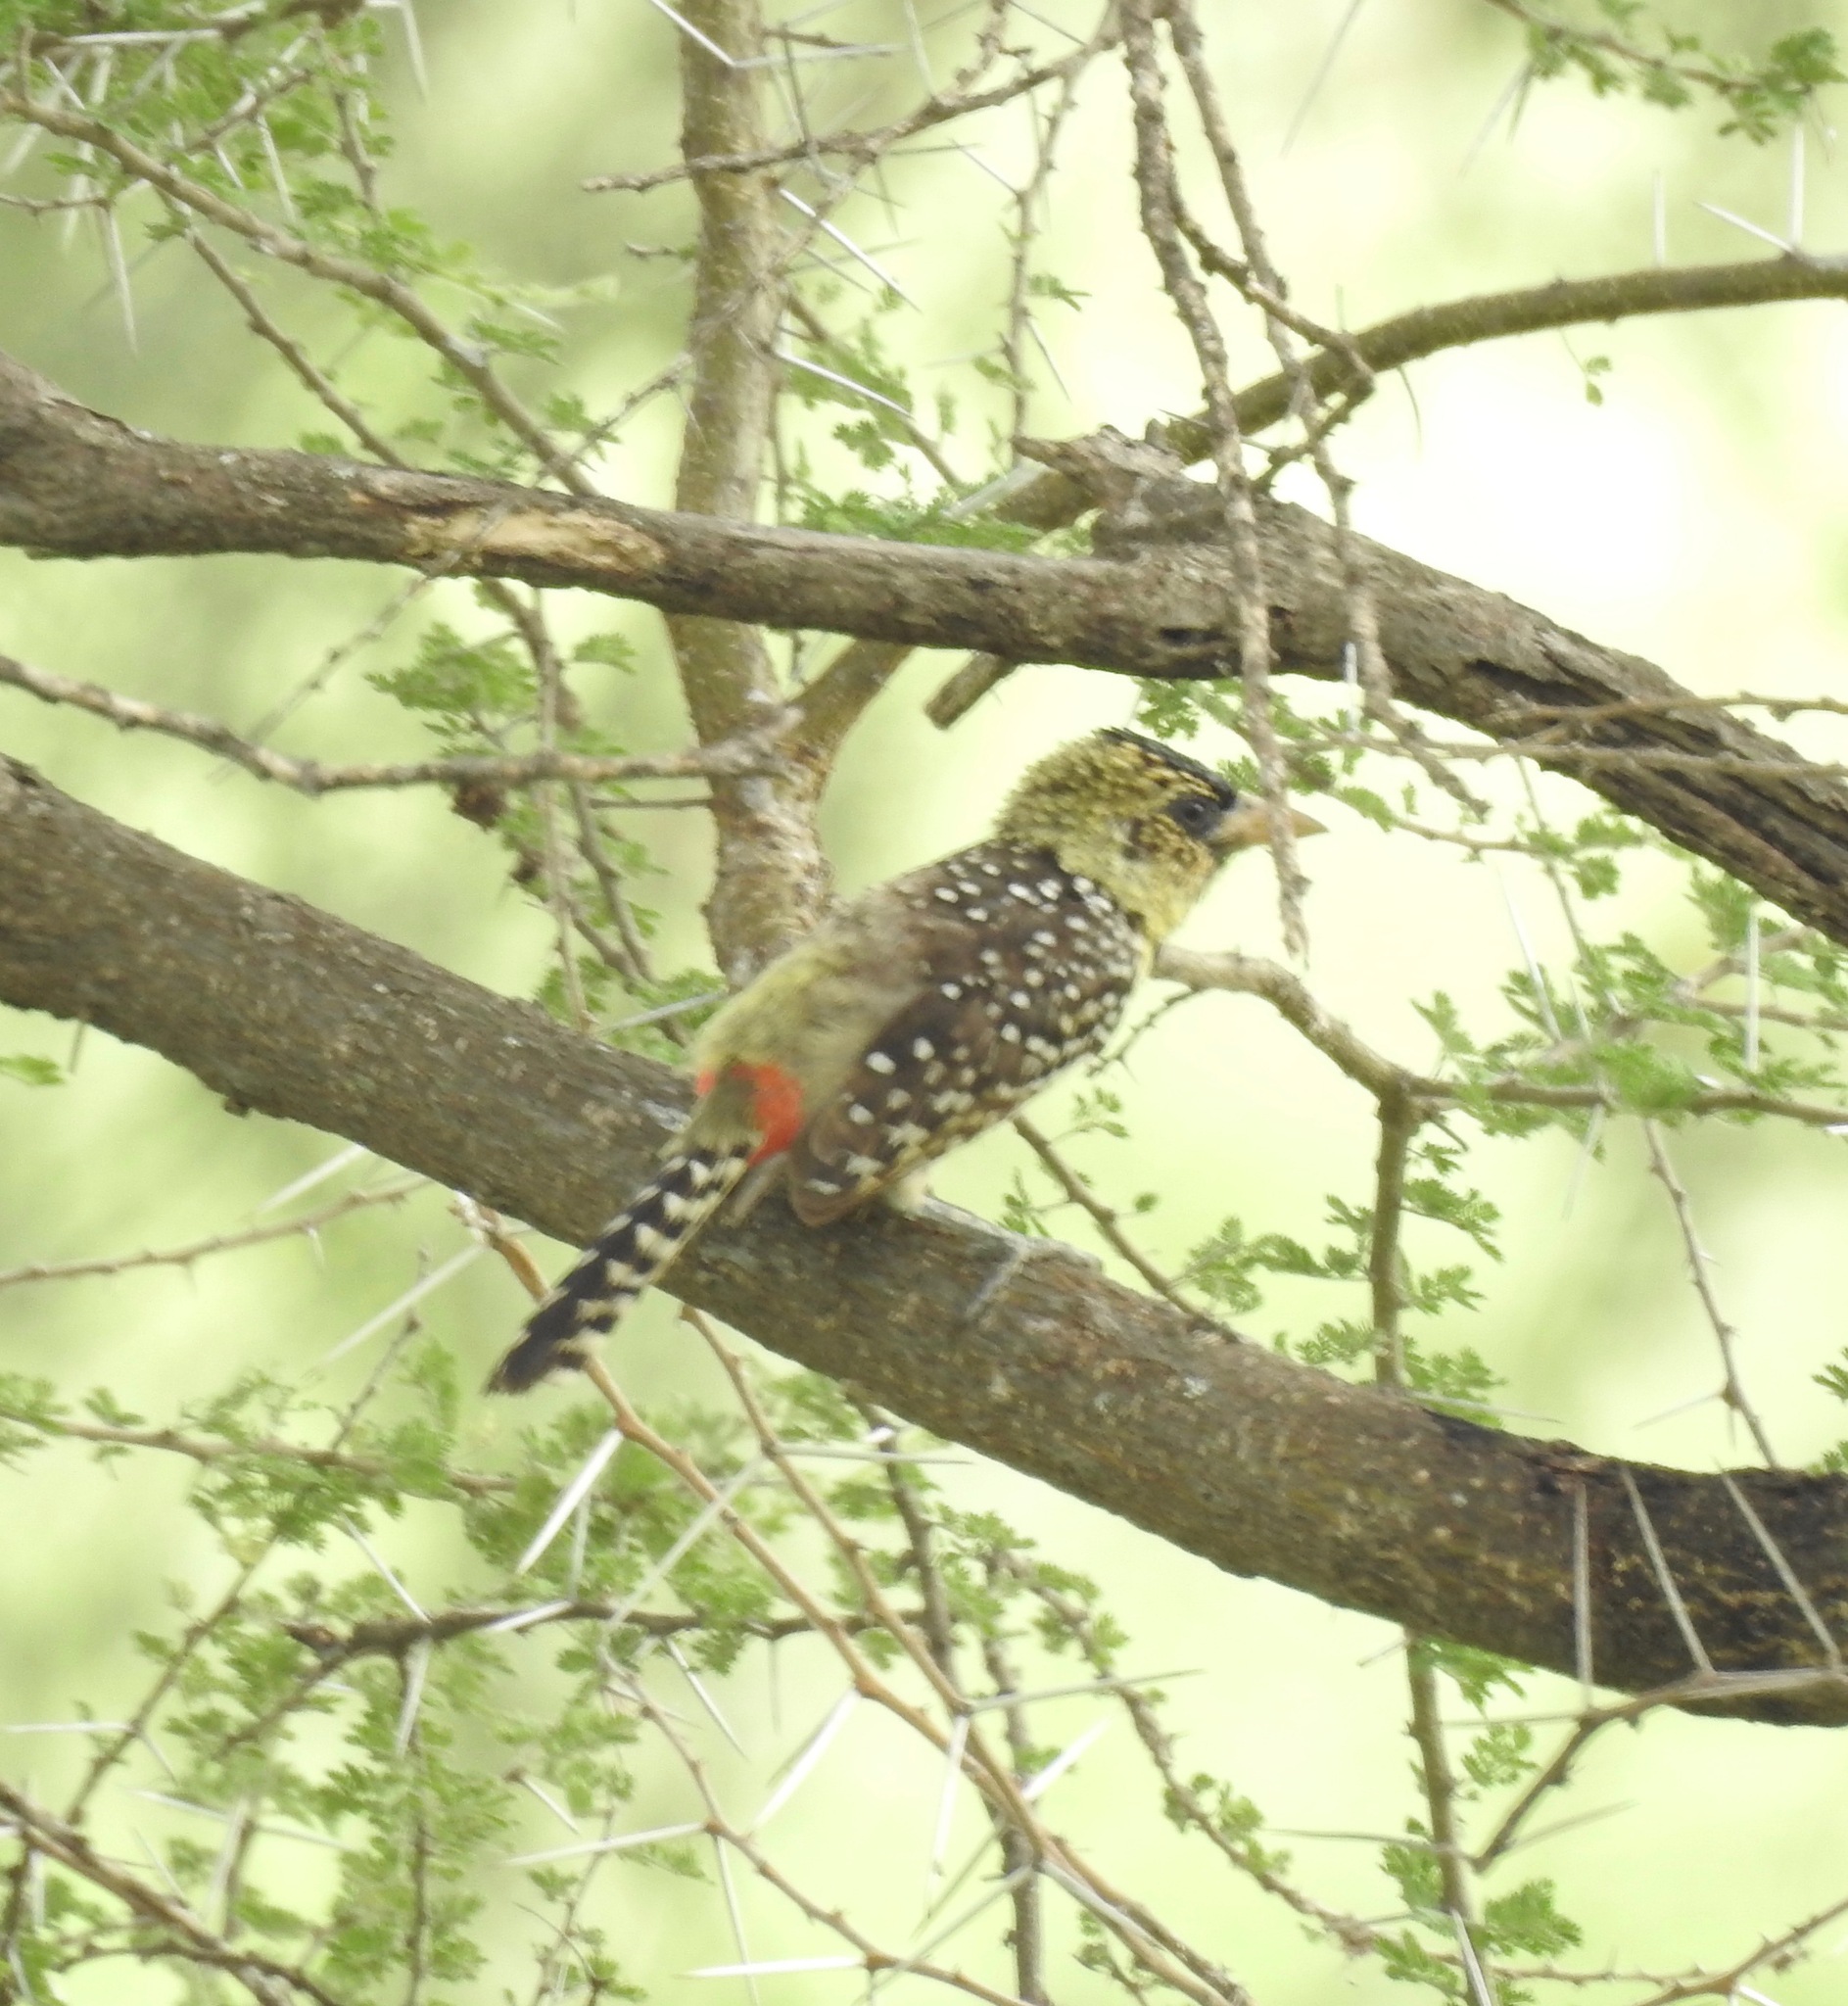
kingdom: Animalia
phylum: Chordata
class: Aves
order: Piciformes
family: Lybiidae
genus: Trachyphonus
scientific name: Trachyphonus darnaudii
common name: D'arnaud's barbet
